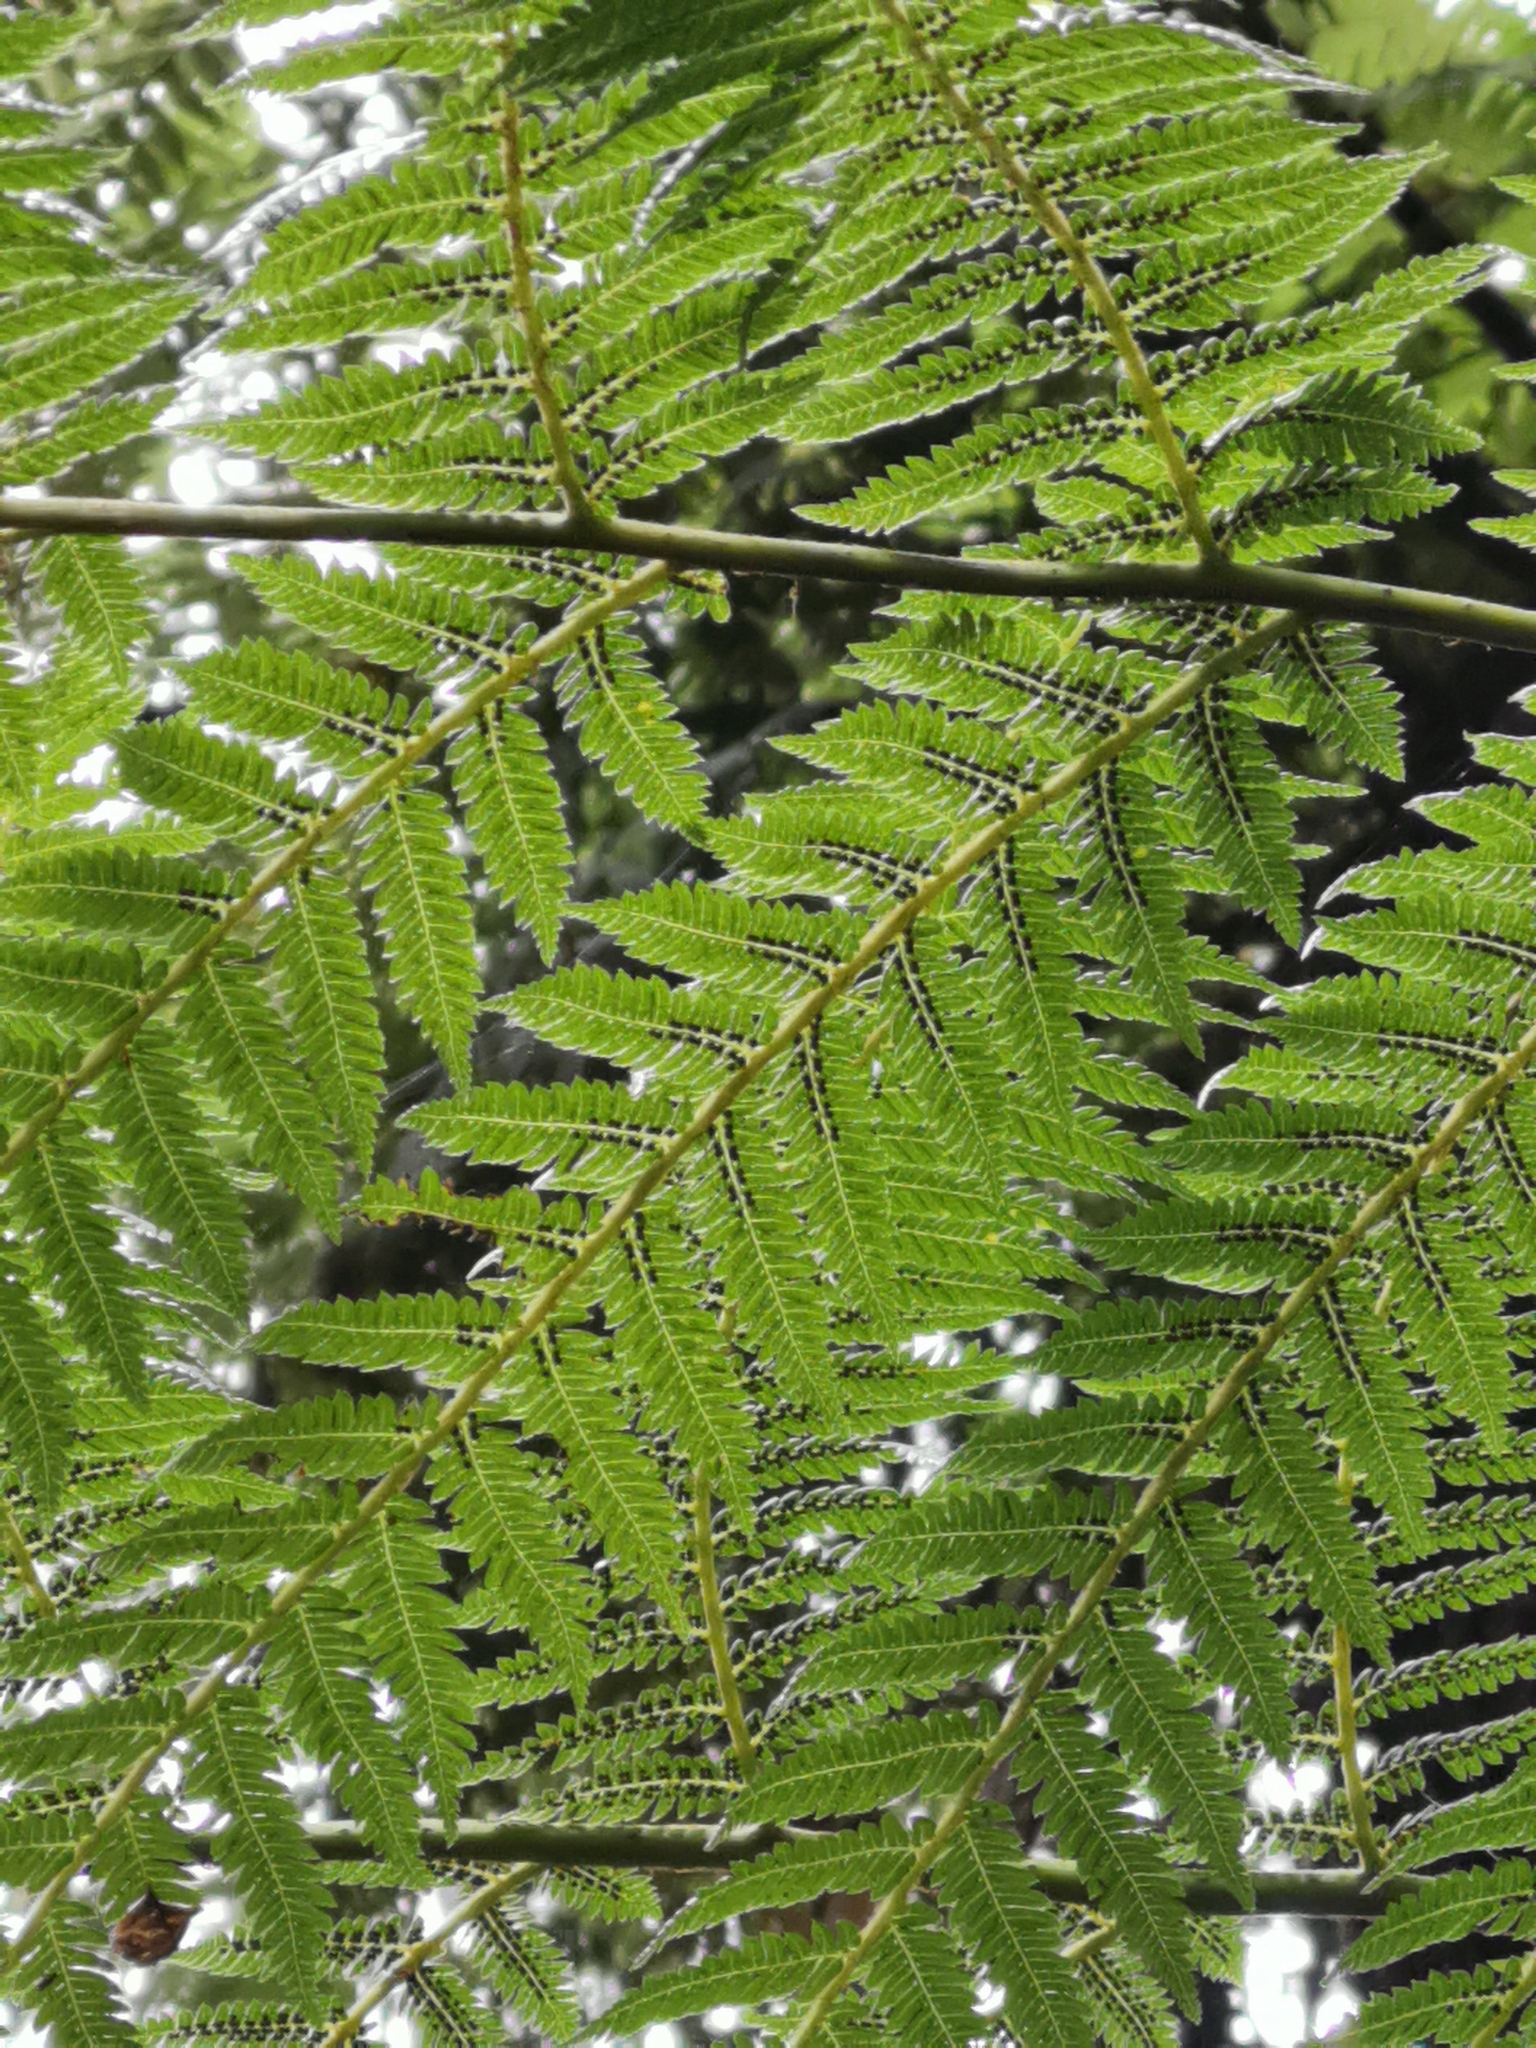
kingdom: Plantae
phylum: Tracheophyta
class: Polypodiopsida
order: Cyatheales
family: Cyatheaceae
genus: Alsophila
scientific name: Alsophila smithii
